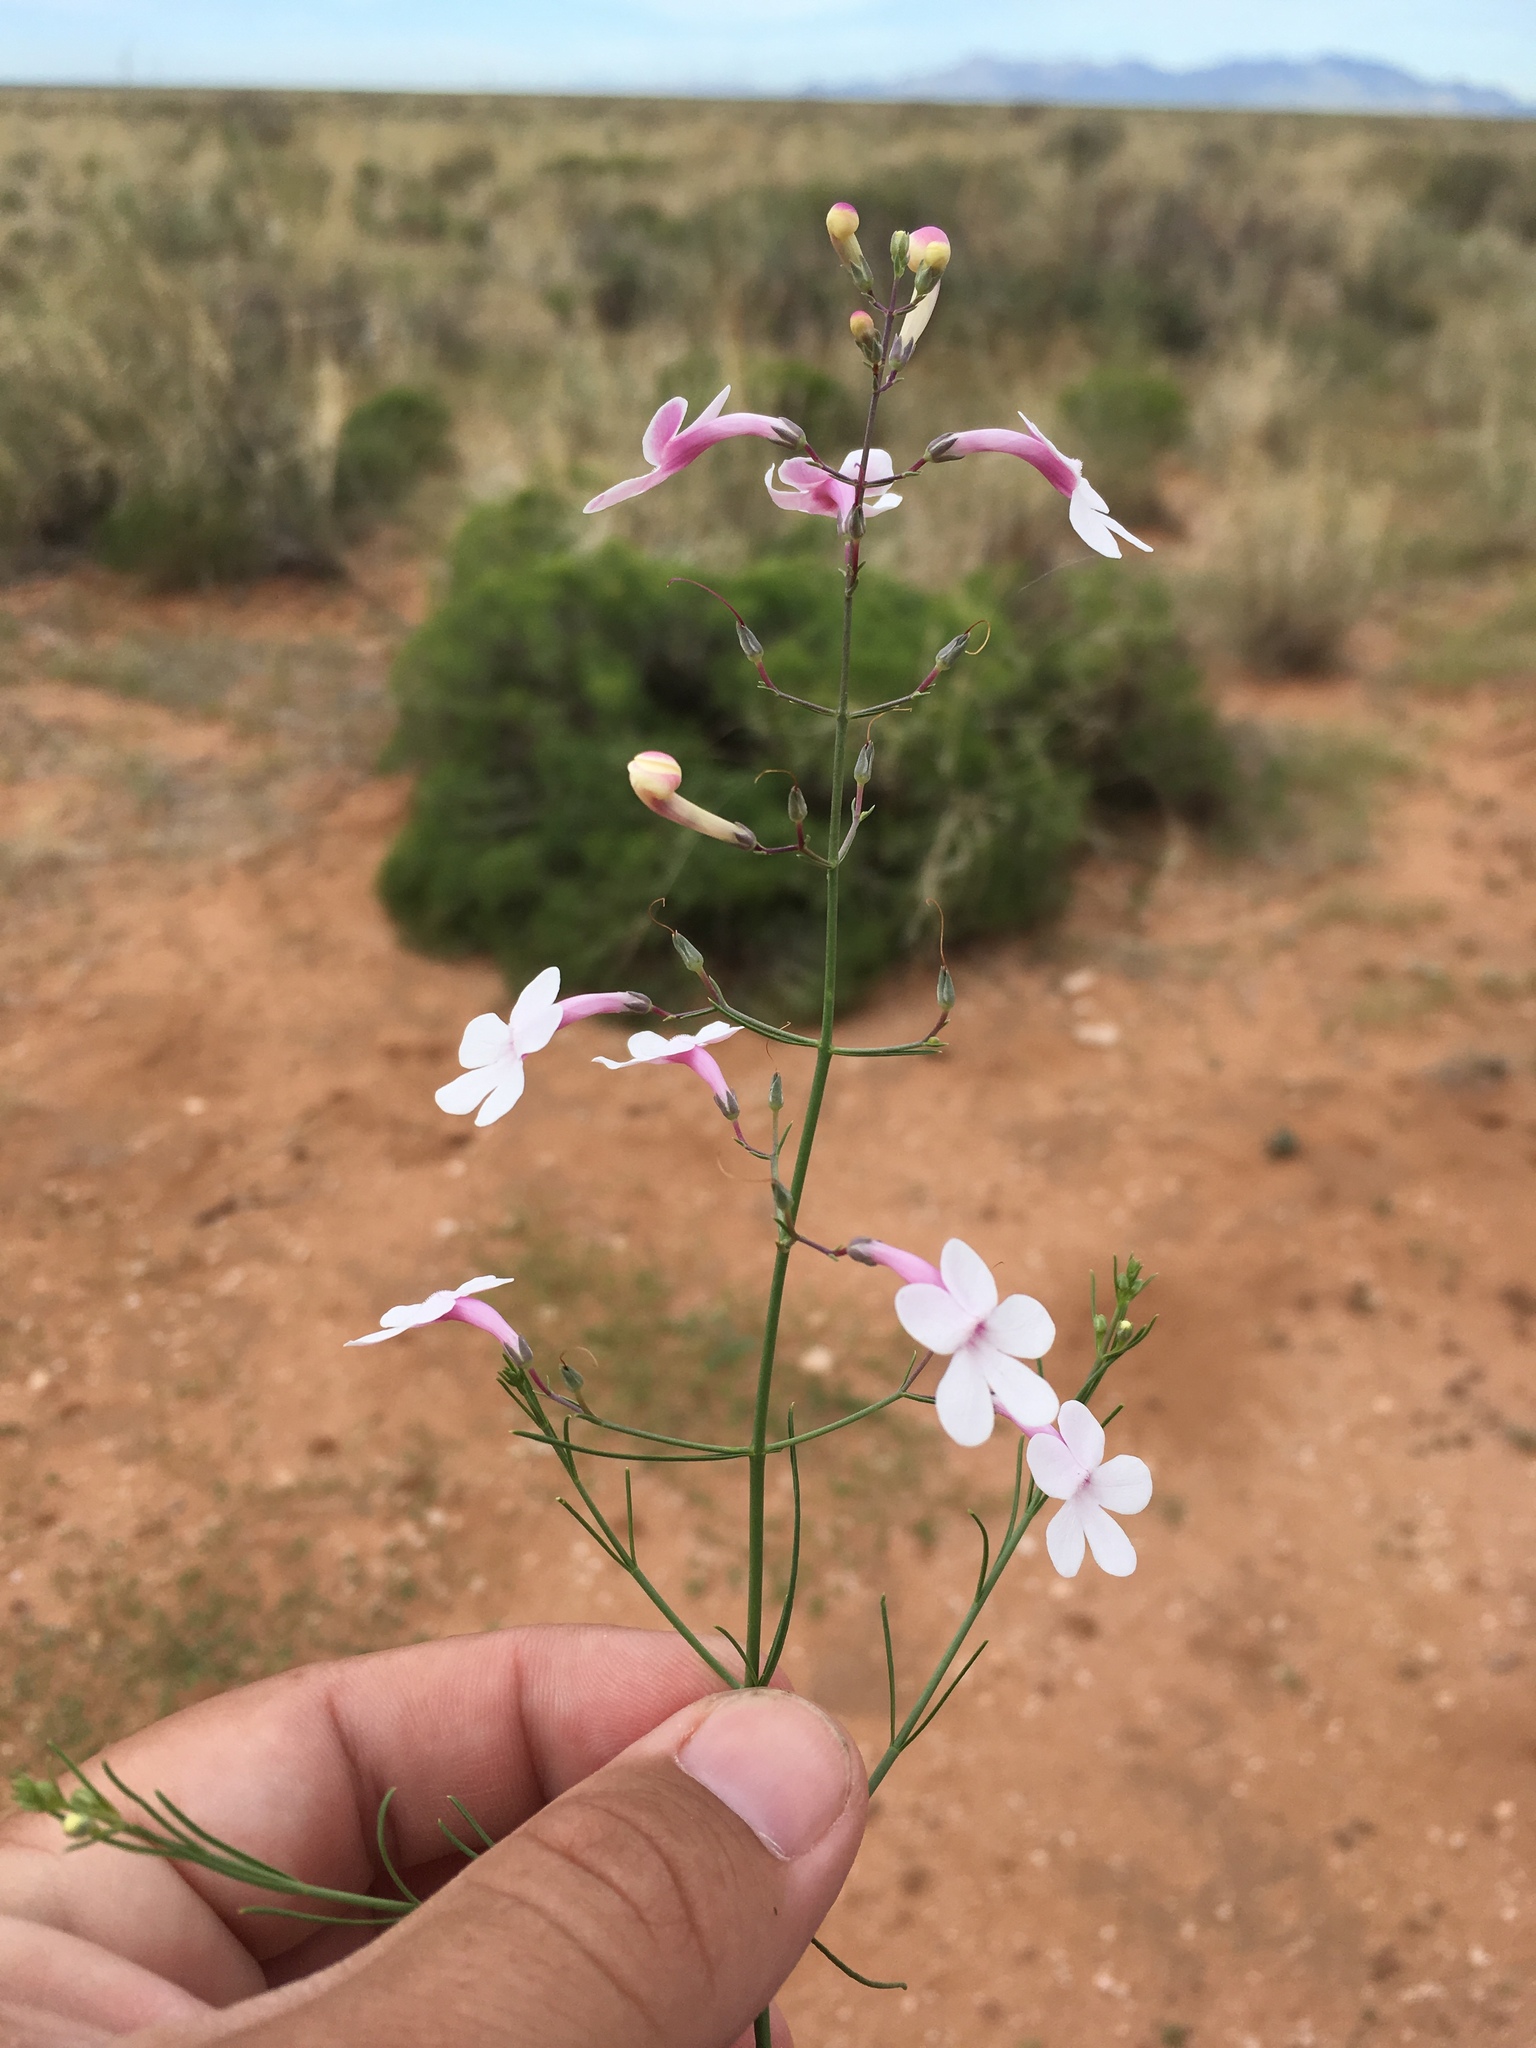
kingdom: Plantae
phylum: Tracheophyta
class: Magnoliopsida
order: Lamiales
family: Plantaginaceae
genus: Penstemon
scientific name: Penstemon ambiguus
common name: Bush penstemon
